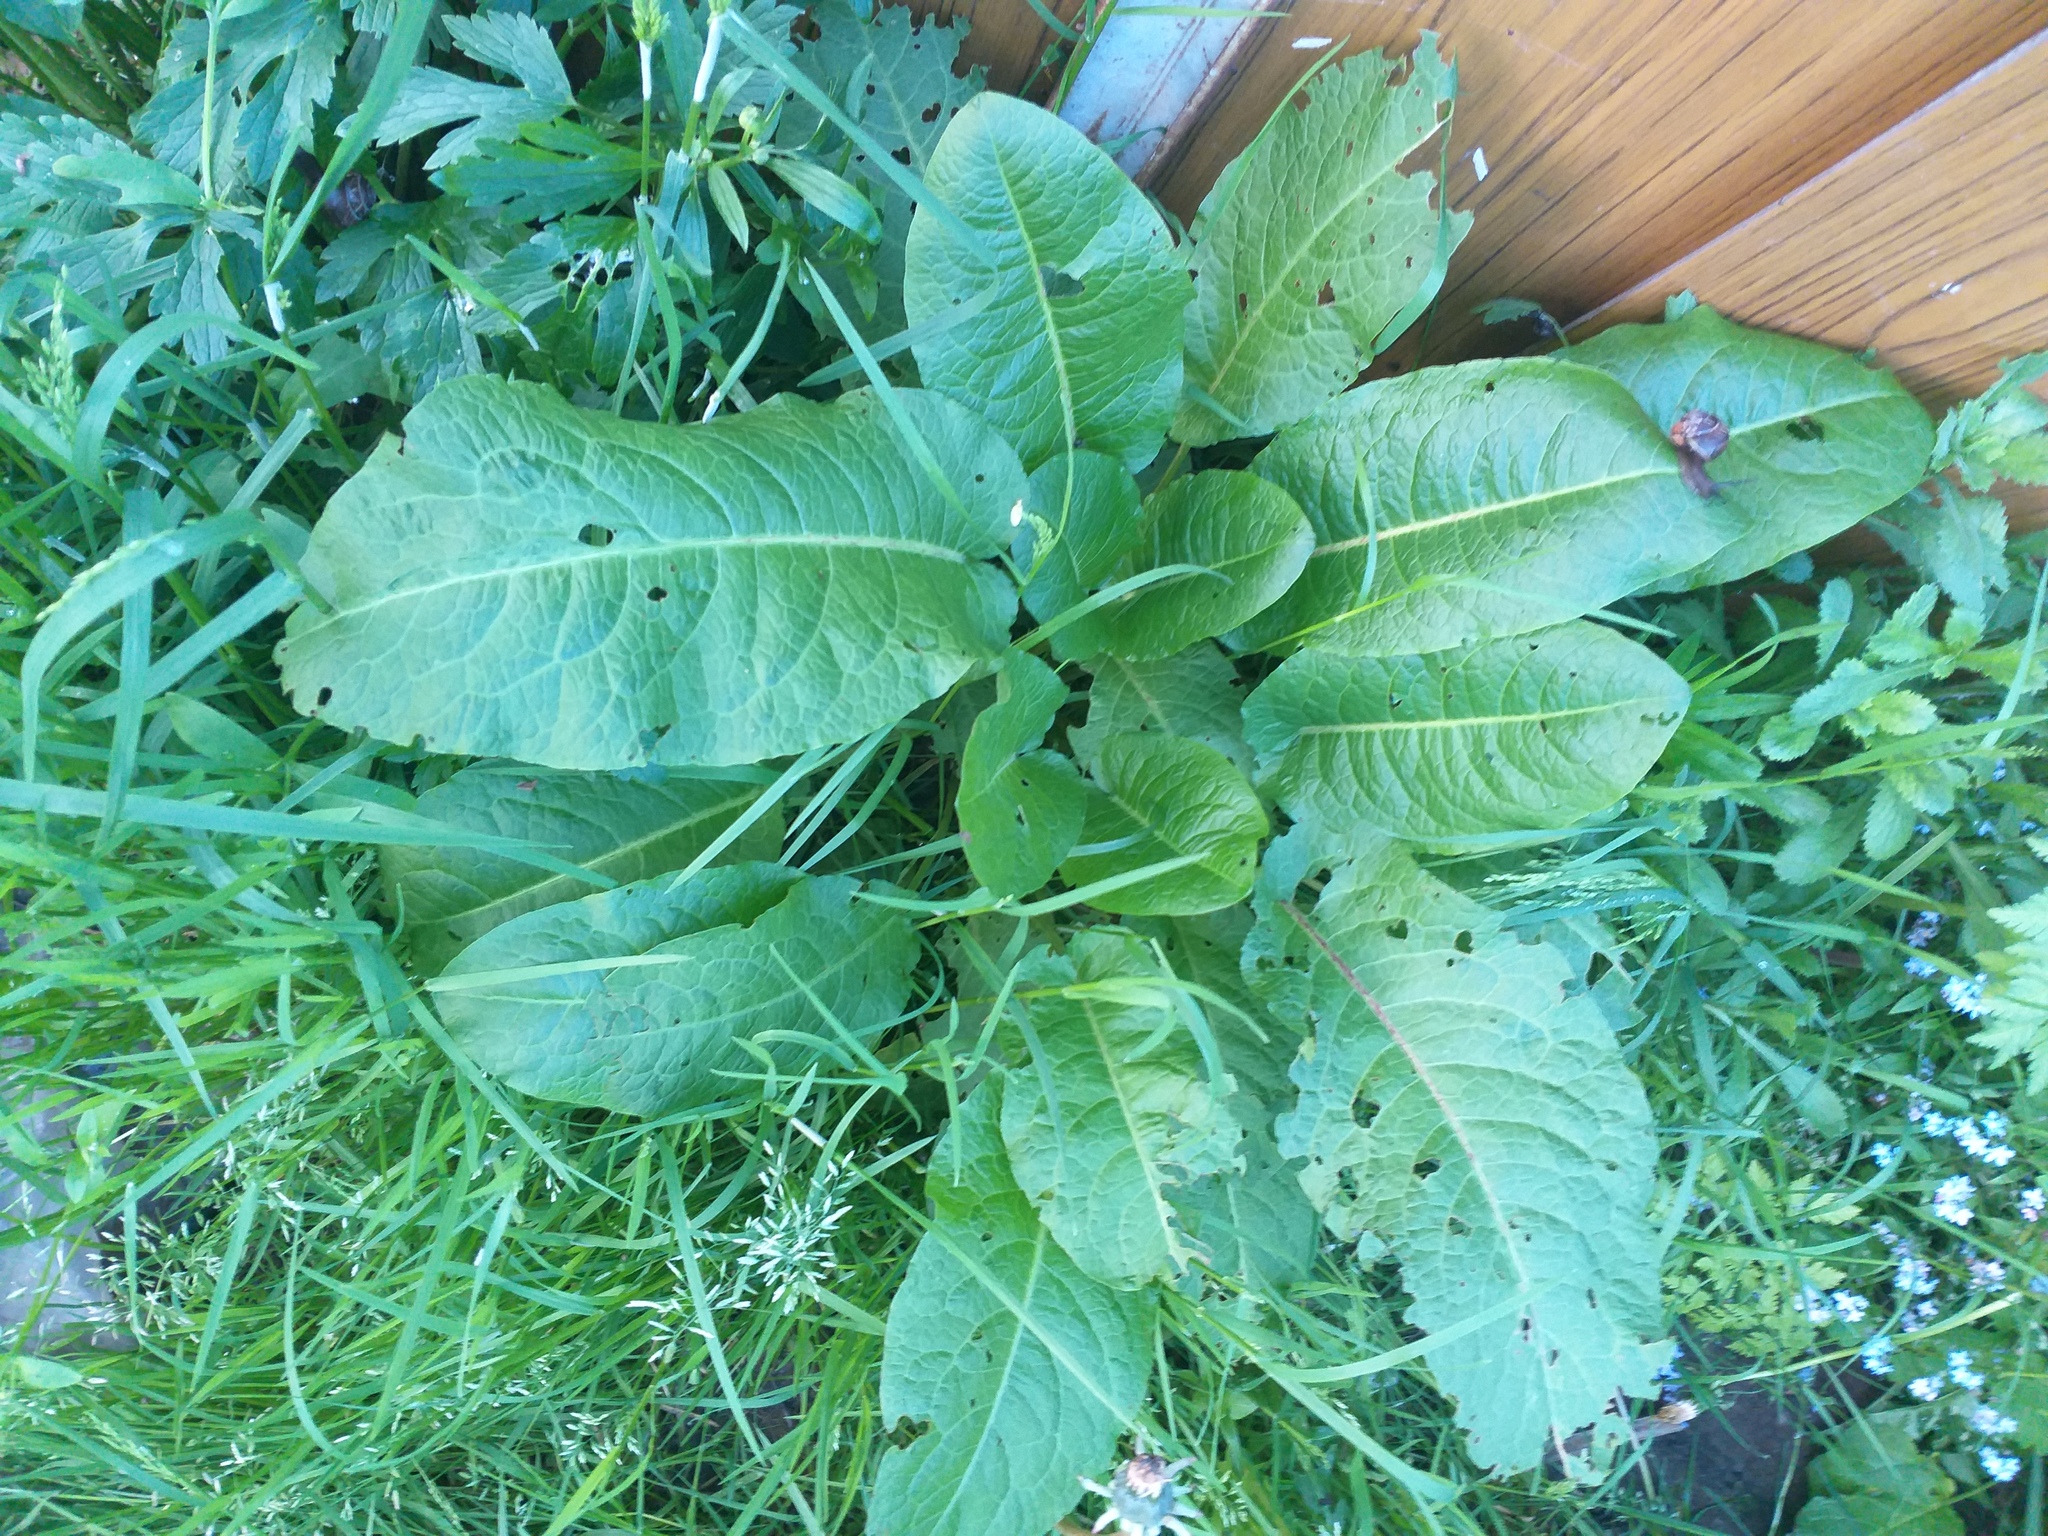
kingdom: Plantae
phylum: Tracheophyta
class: Magnoliopsida
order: Caryophyllales
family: Polygonaceae
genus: Rumex
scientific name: Rumex obtusifolius
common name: Bitter dock
